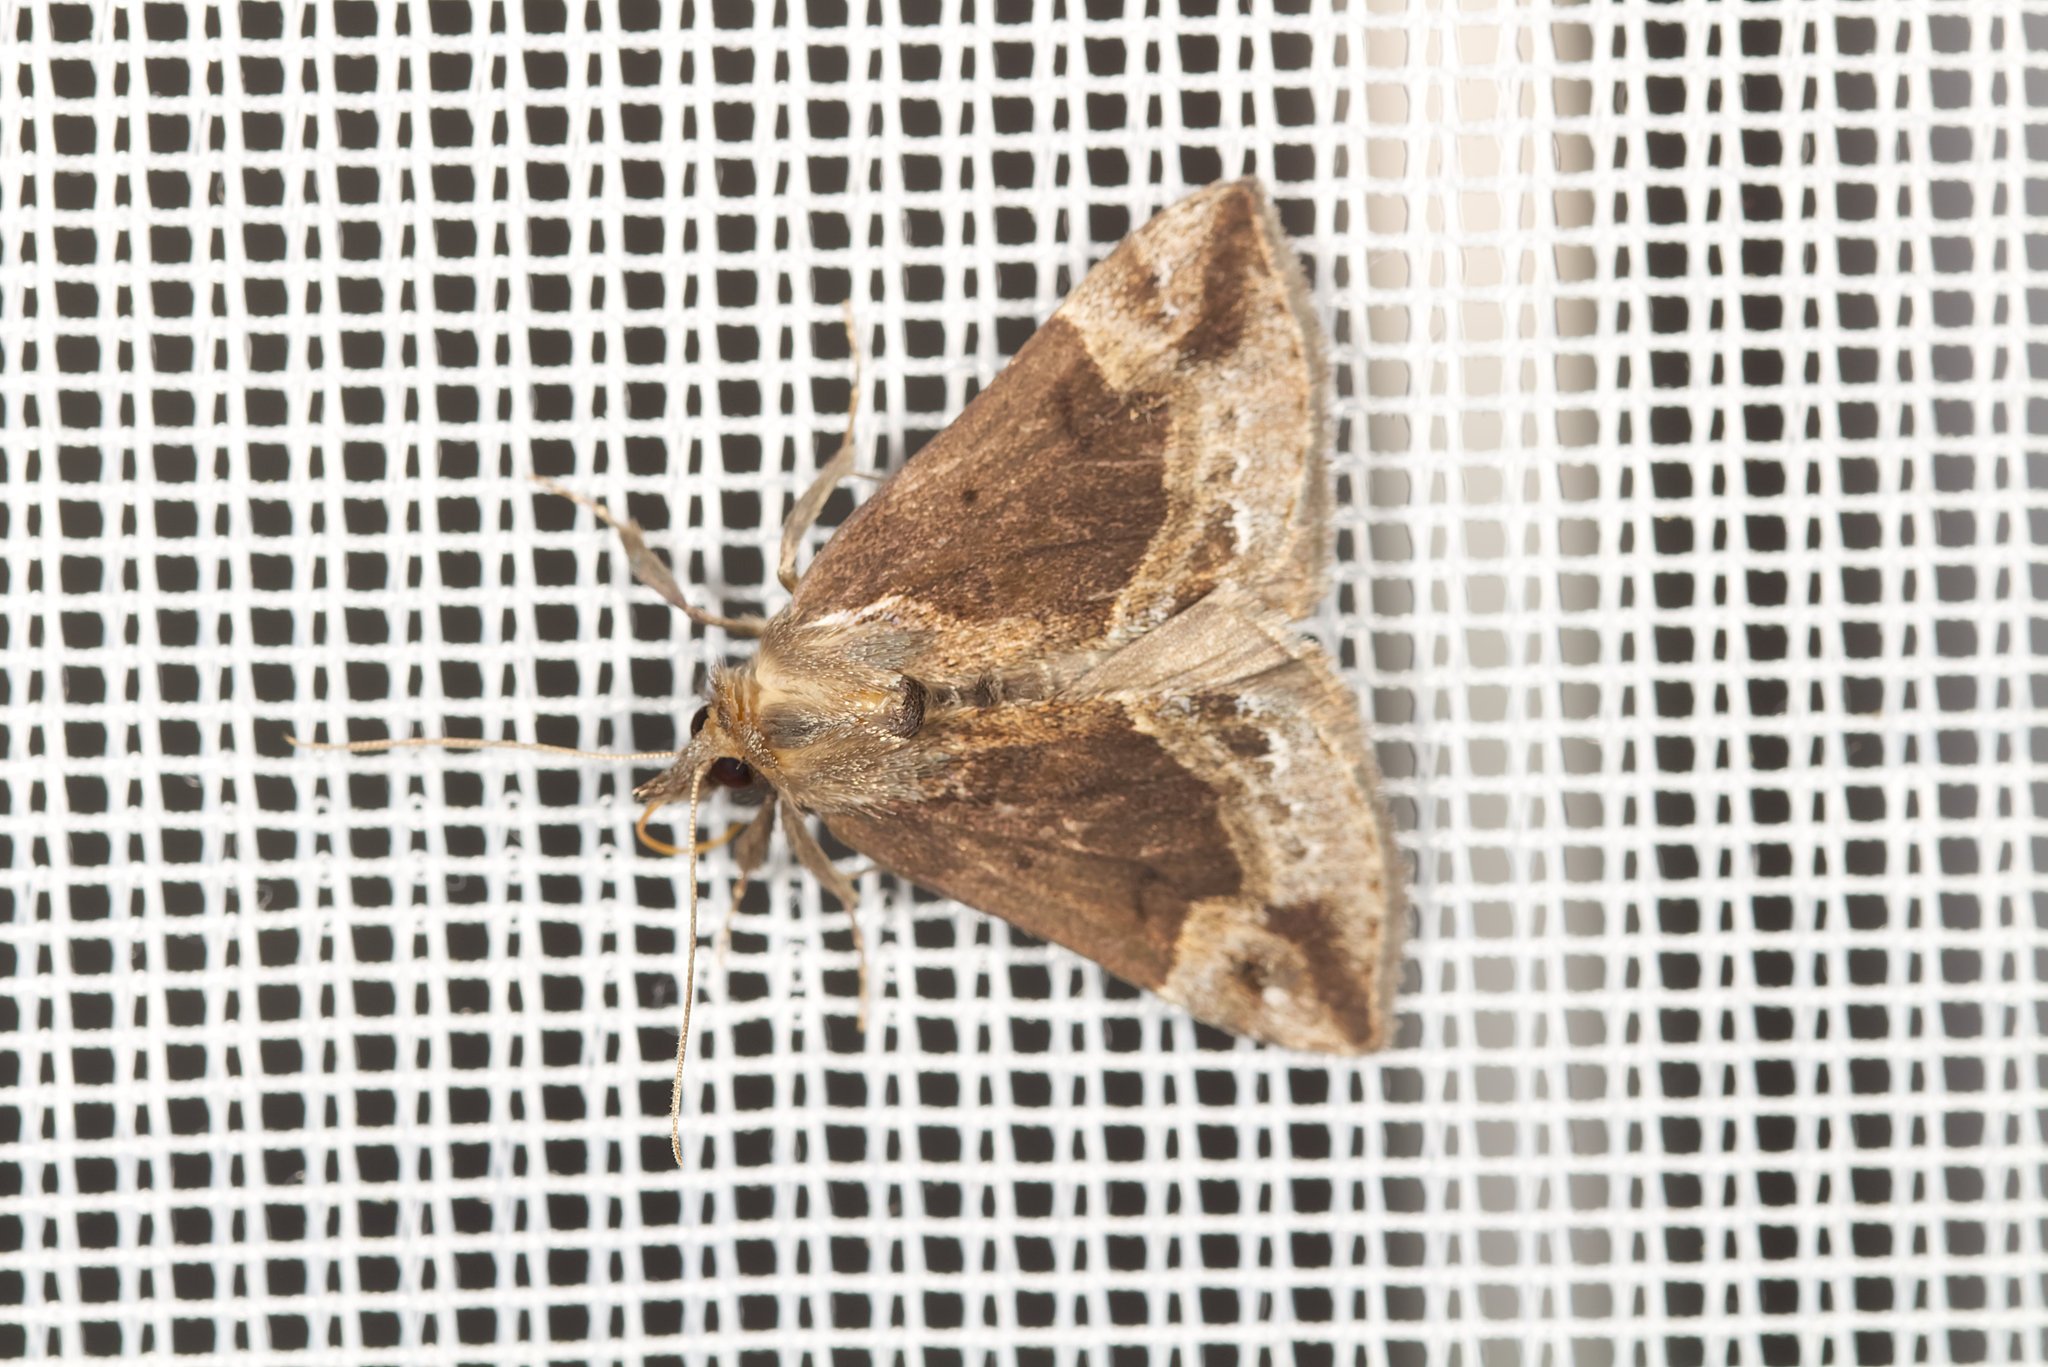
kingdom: Animalia
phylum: Arthropoda
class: Insecta
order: Lepidoptera
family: Erebidae
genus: Hypena
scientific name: Hypena crassalis
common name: Beautiful snout
